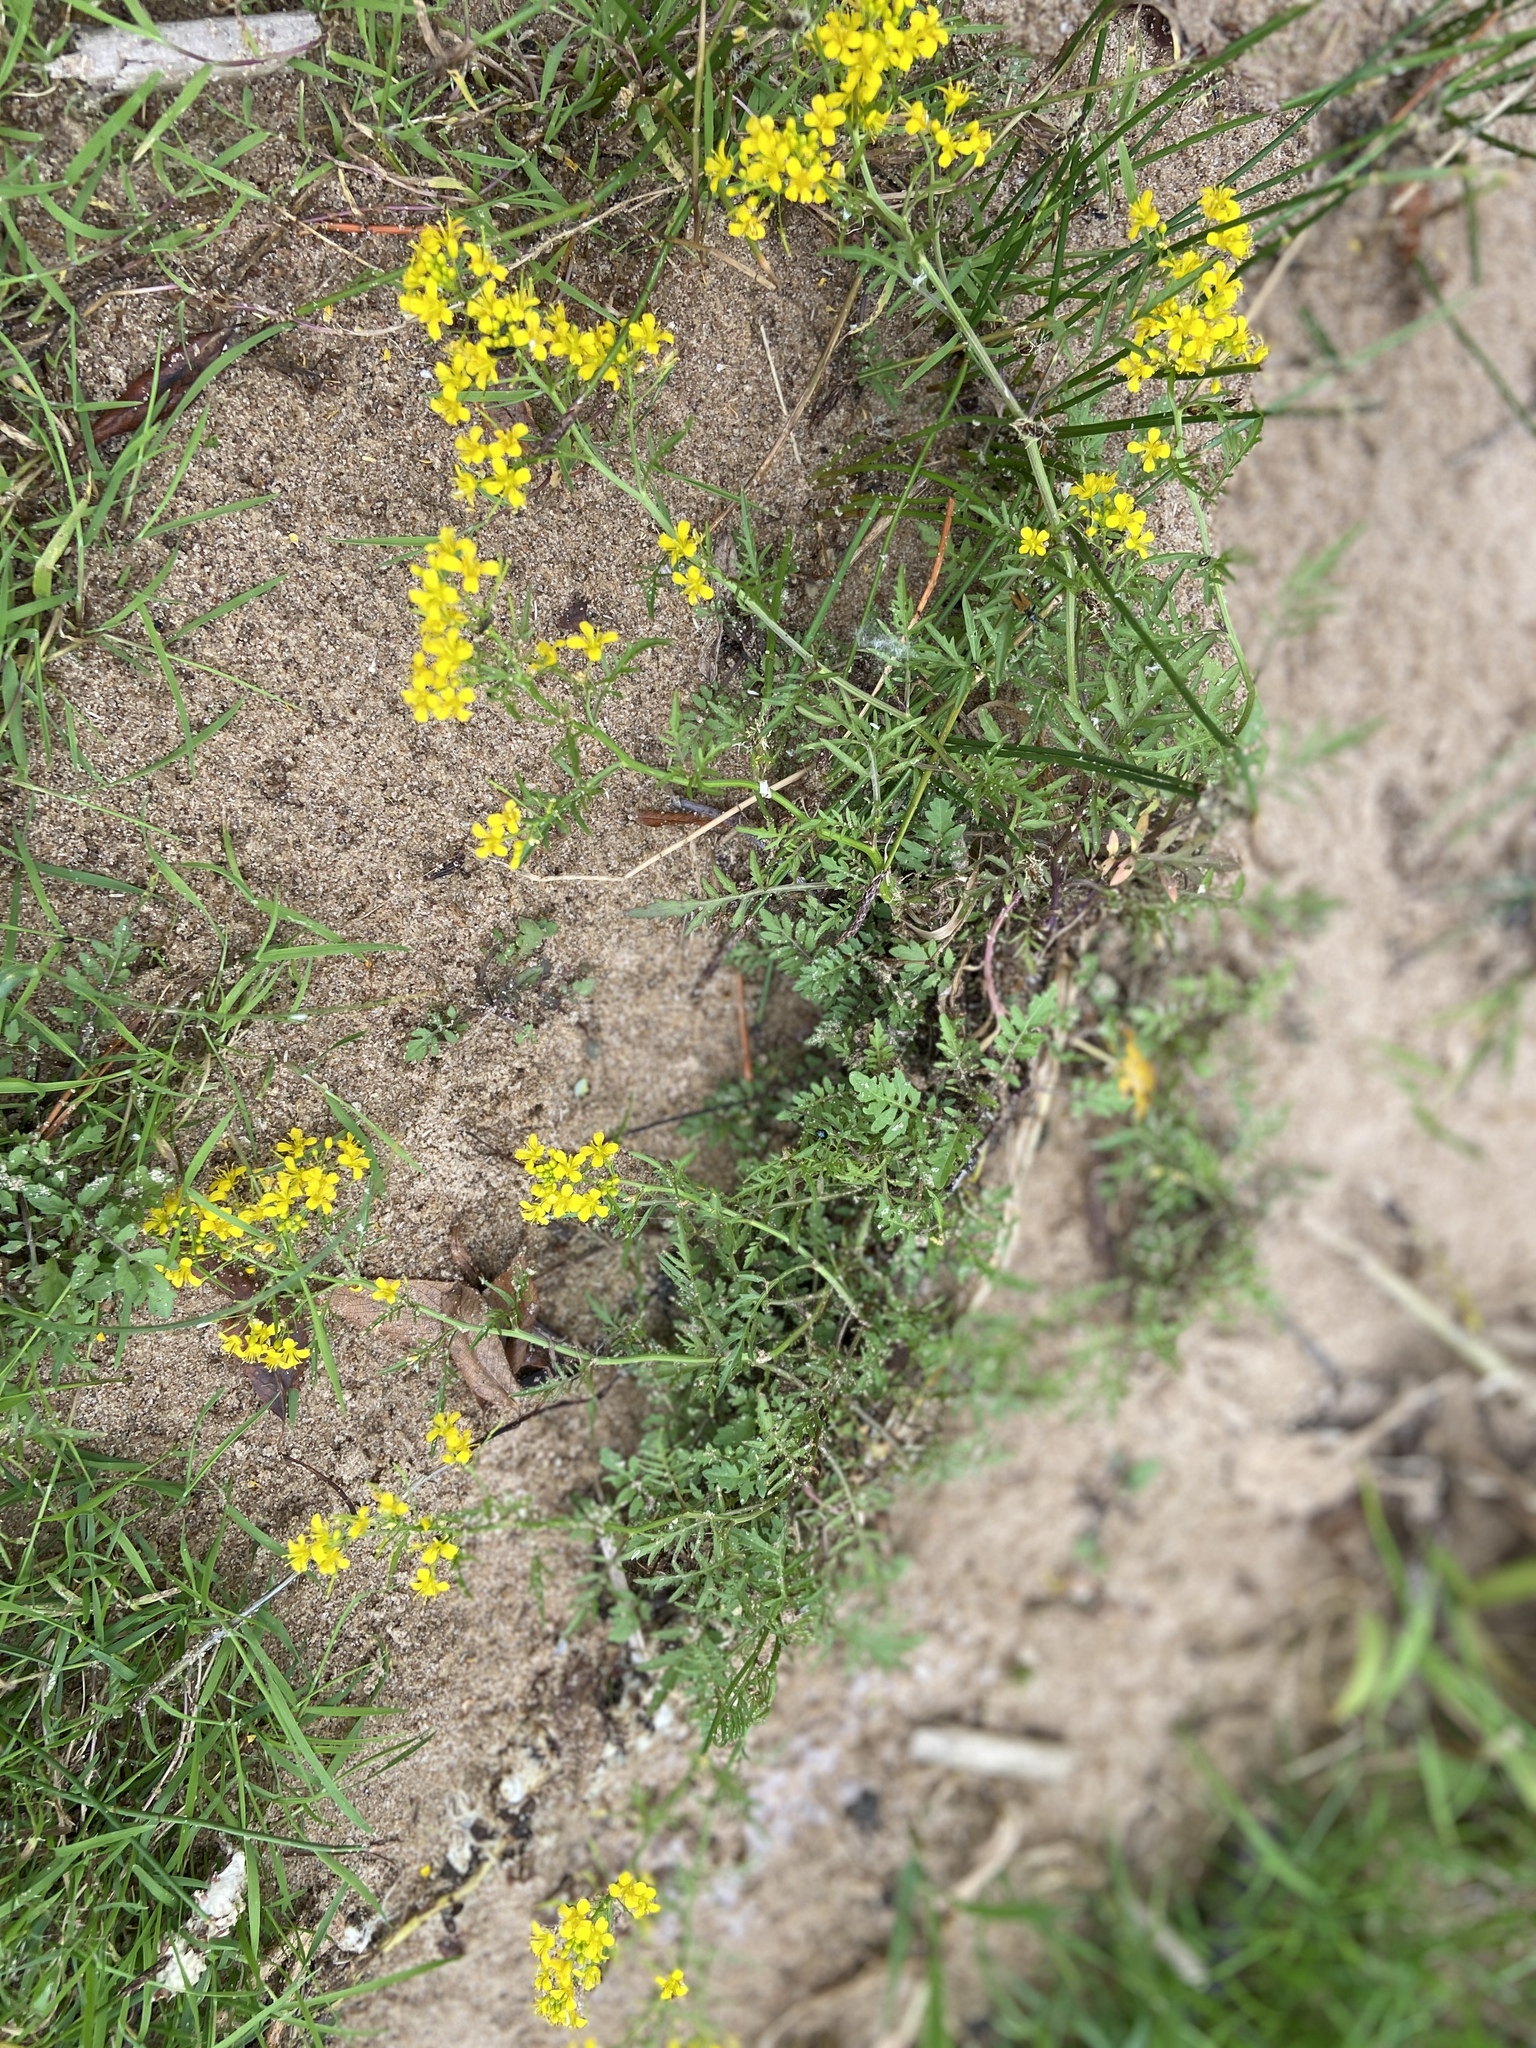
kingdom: Plantae
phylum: Tracheophyta
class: Magnoliopsida
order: Brassicales
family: Brassicaceae
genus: Rorippa
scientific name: Rorippa sylvestris
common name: Creeping yellowcress
